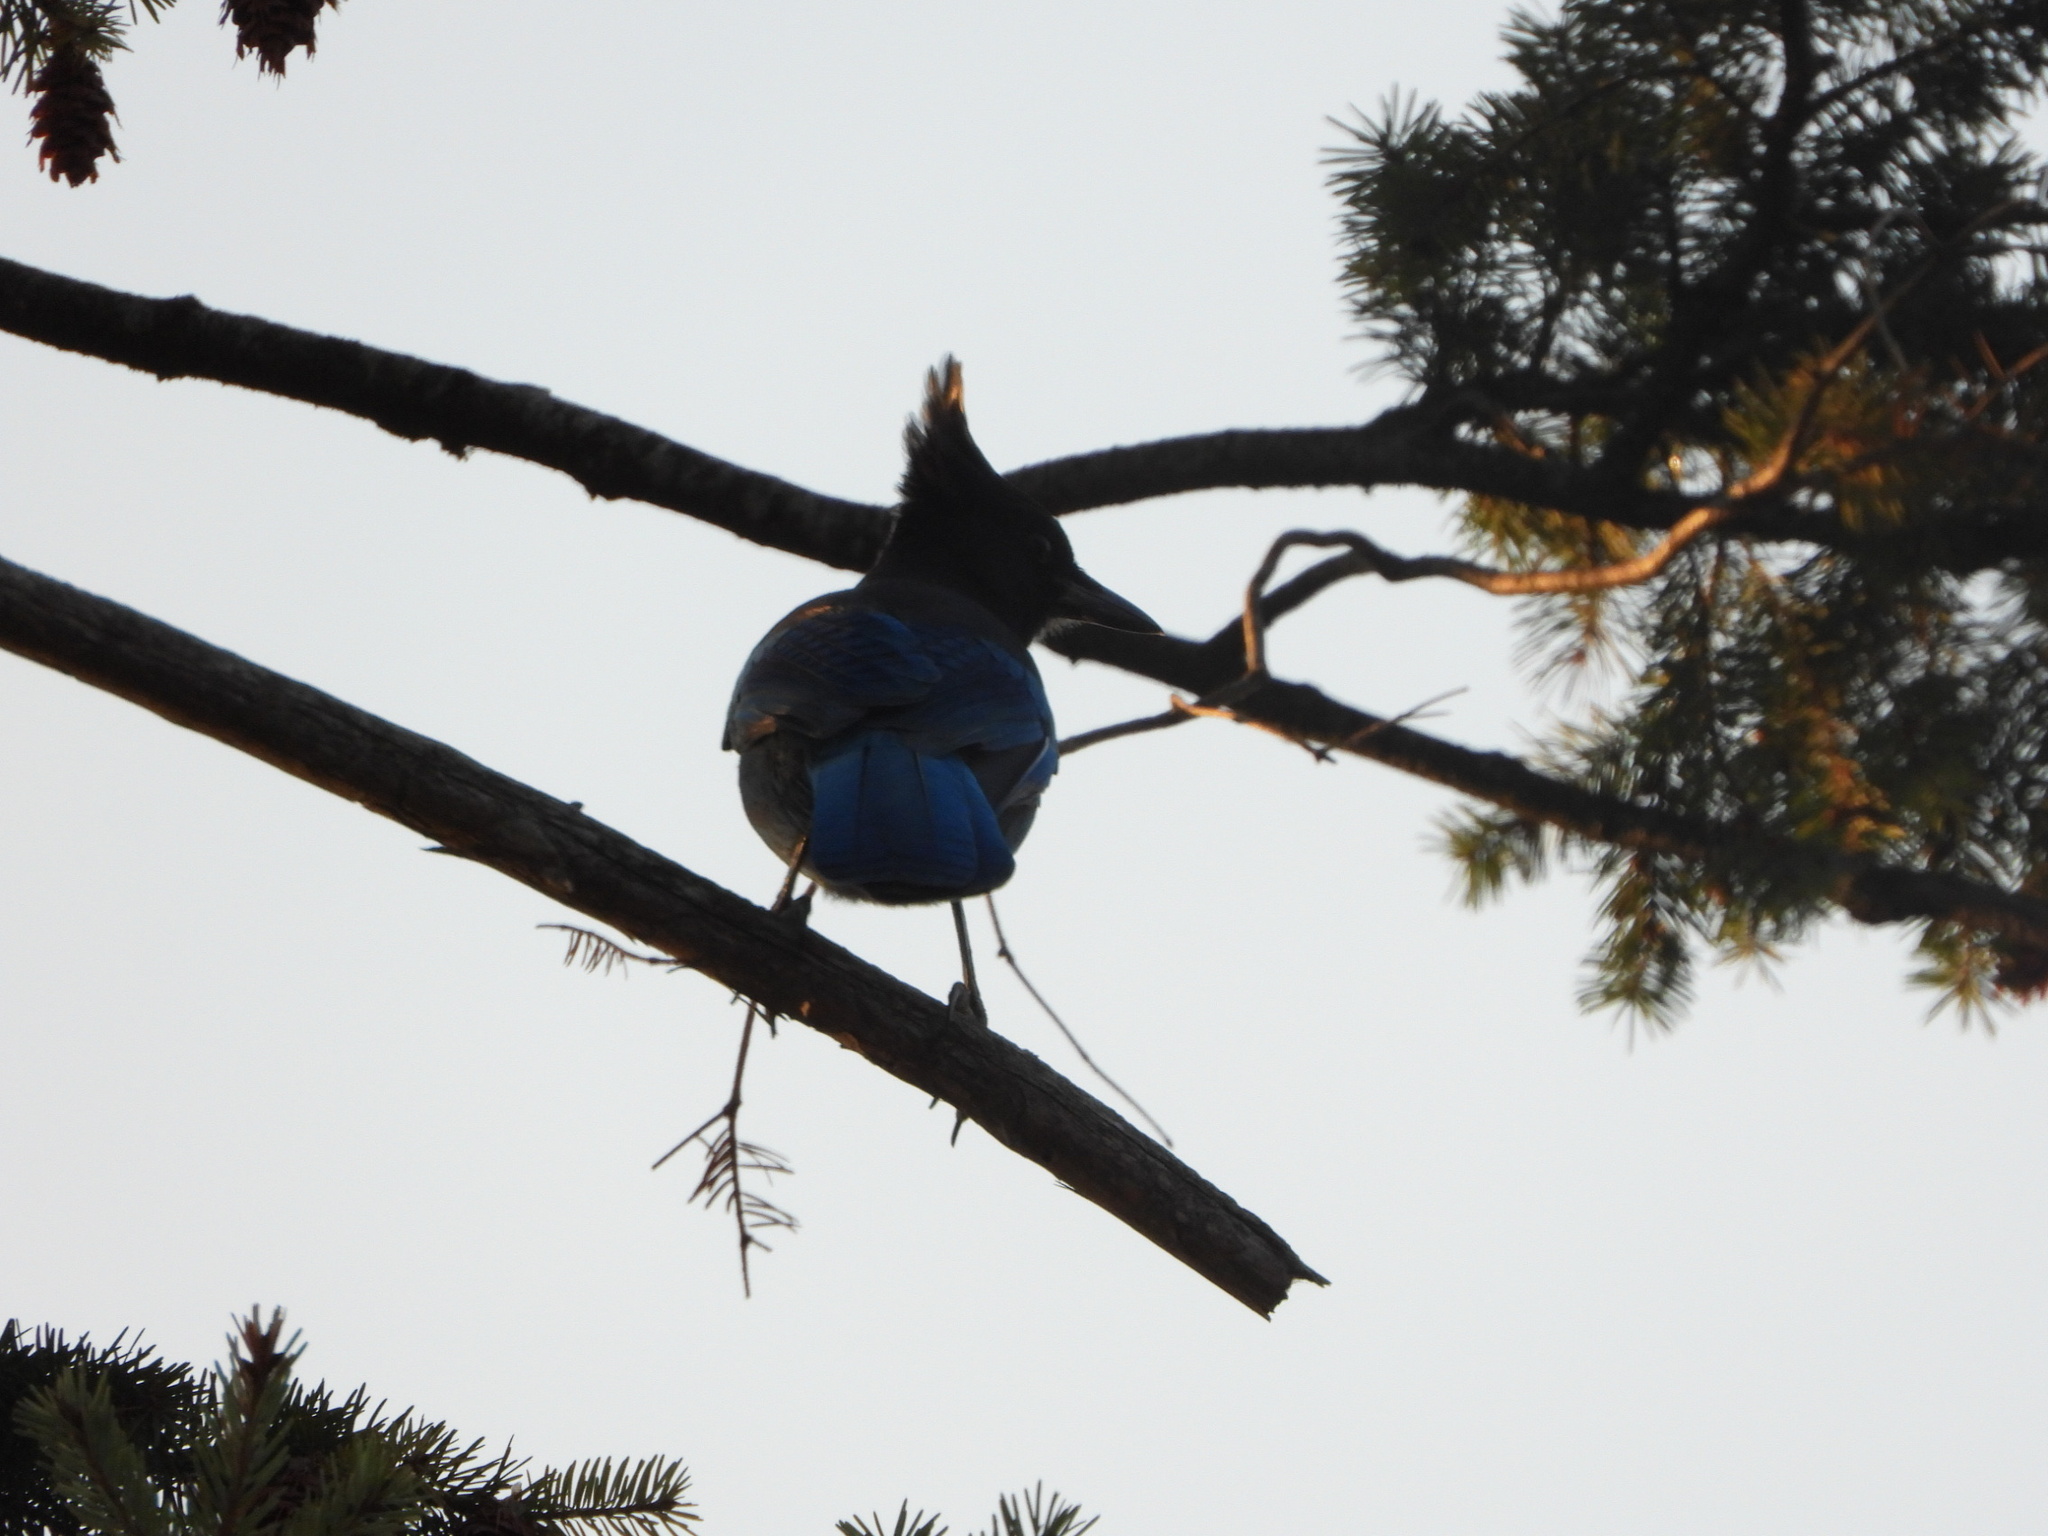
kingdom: Animalia
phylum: Chordata
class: Aves
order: Passeriformes
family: Corvidae
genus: Cyanocitta
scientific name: Cyanocitta stelleri
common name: Steller's jay
